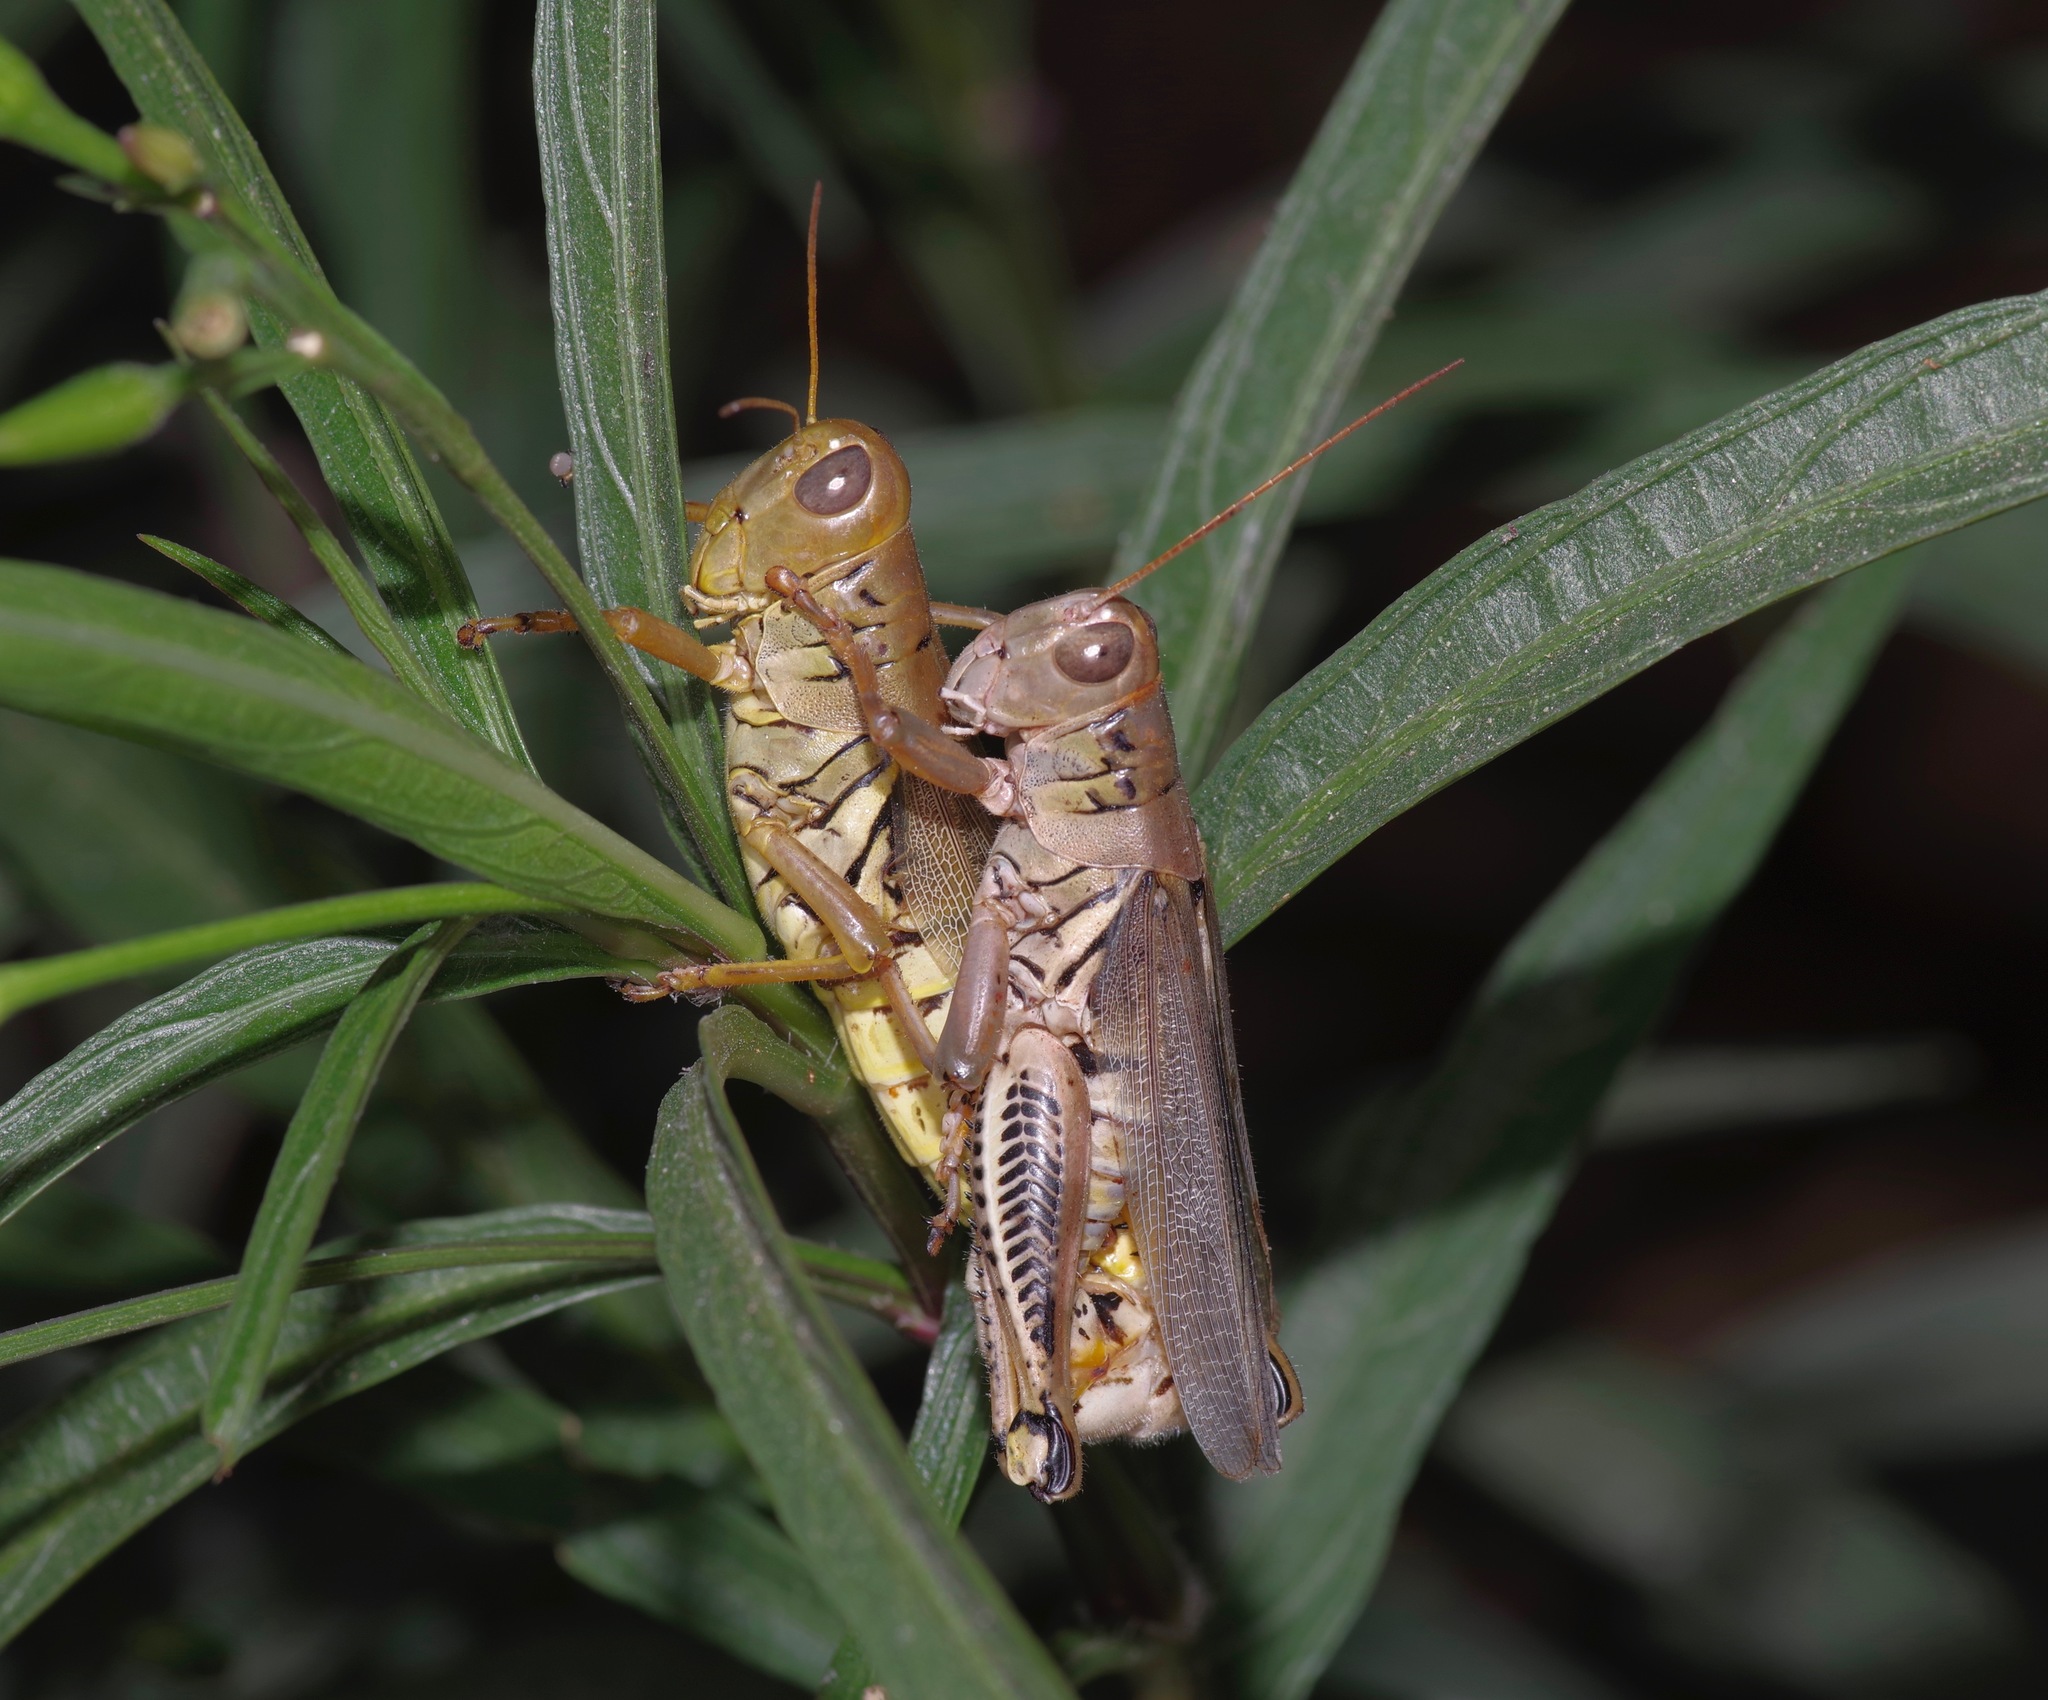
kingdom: Animalia
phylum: Arthropoda
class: Insecta
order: Orthoptera
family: Acrididae
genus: Melanoplus
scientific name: Melanoplus differentialis
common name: Differential grasshopper
